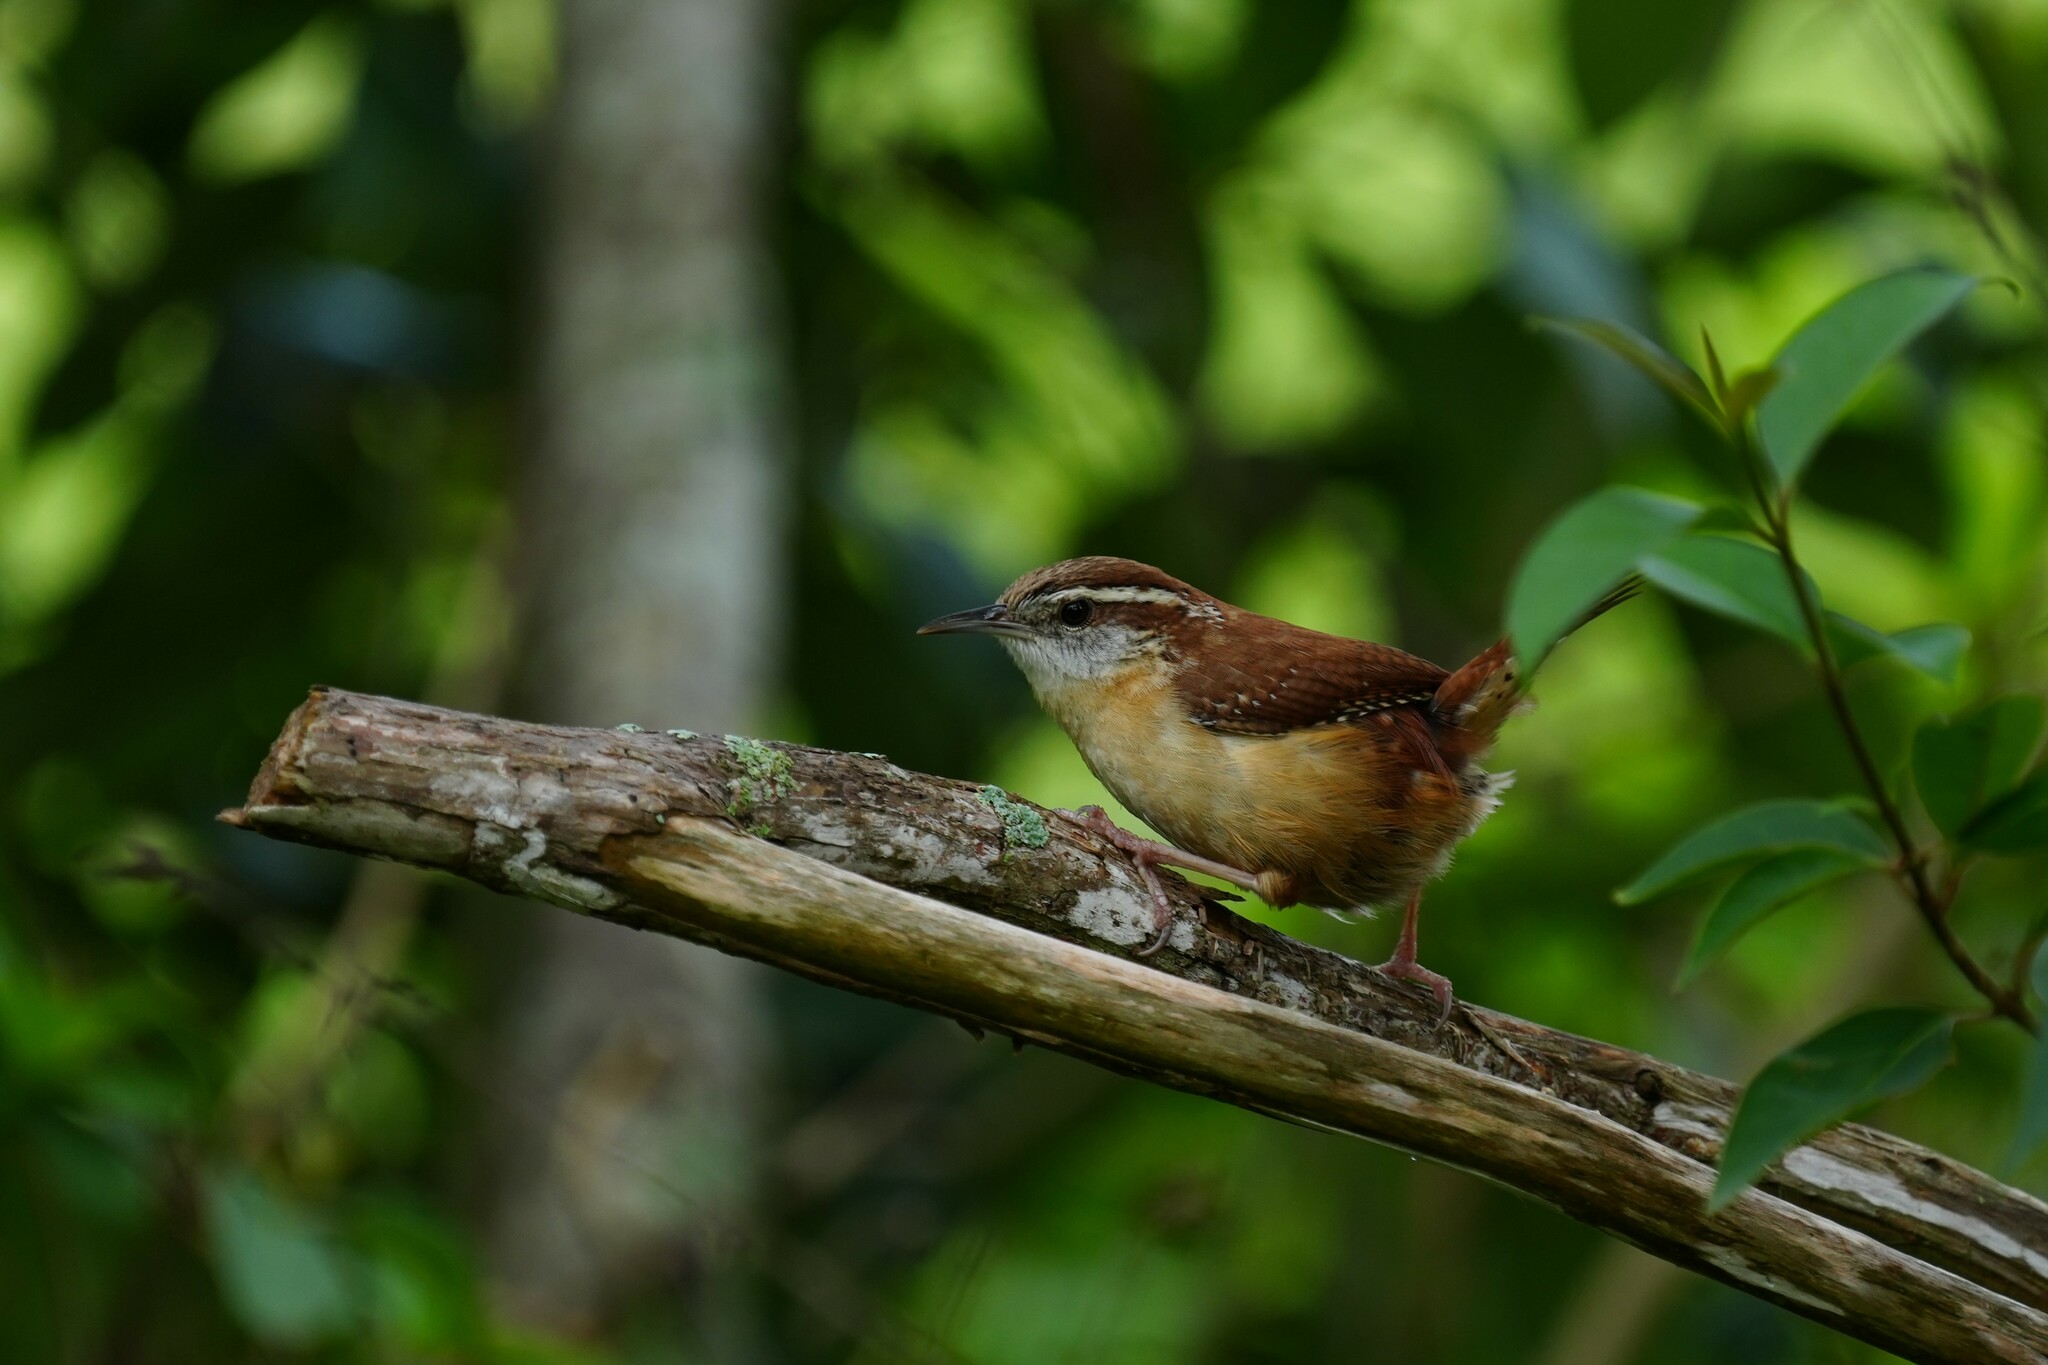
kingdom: Animalia
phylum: Chordata
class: Aves
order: Passeriformes
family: Troglodytidae
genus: Thryothorus
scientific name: Thryothorus ludovicianus
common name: Carolina wren
